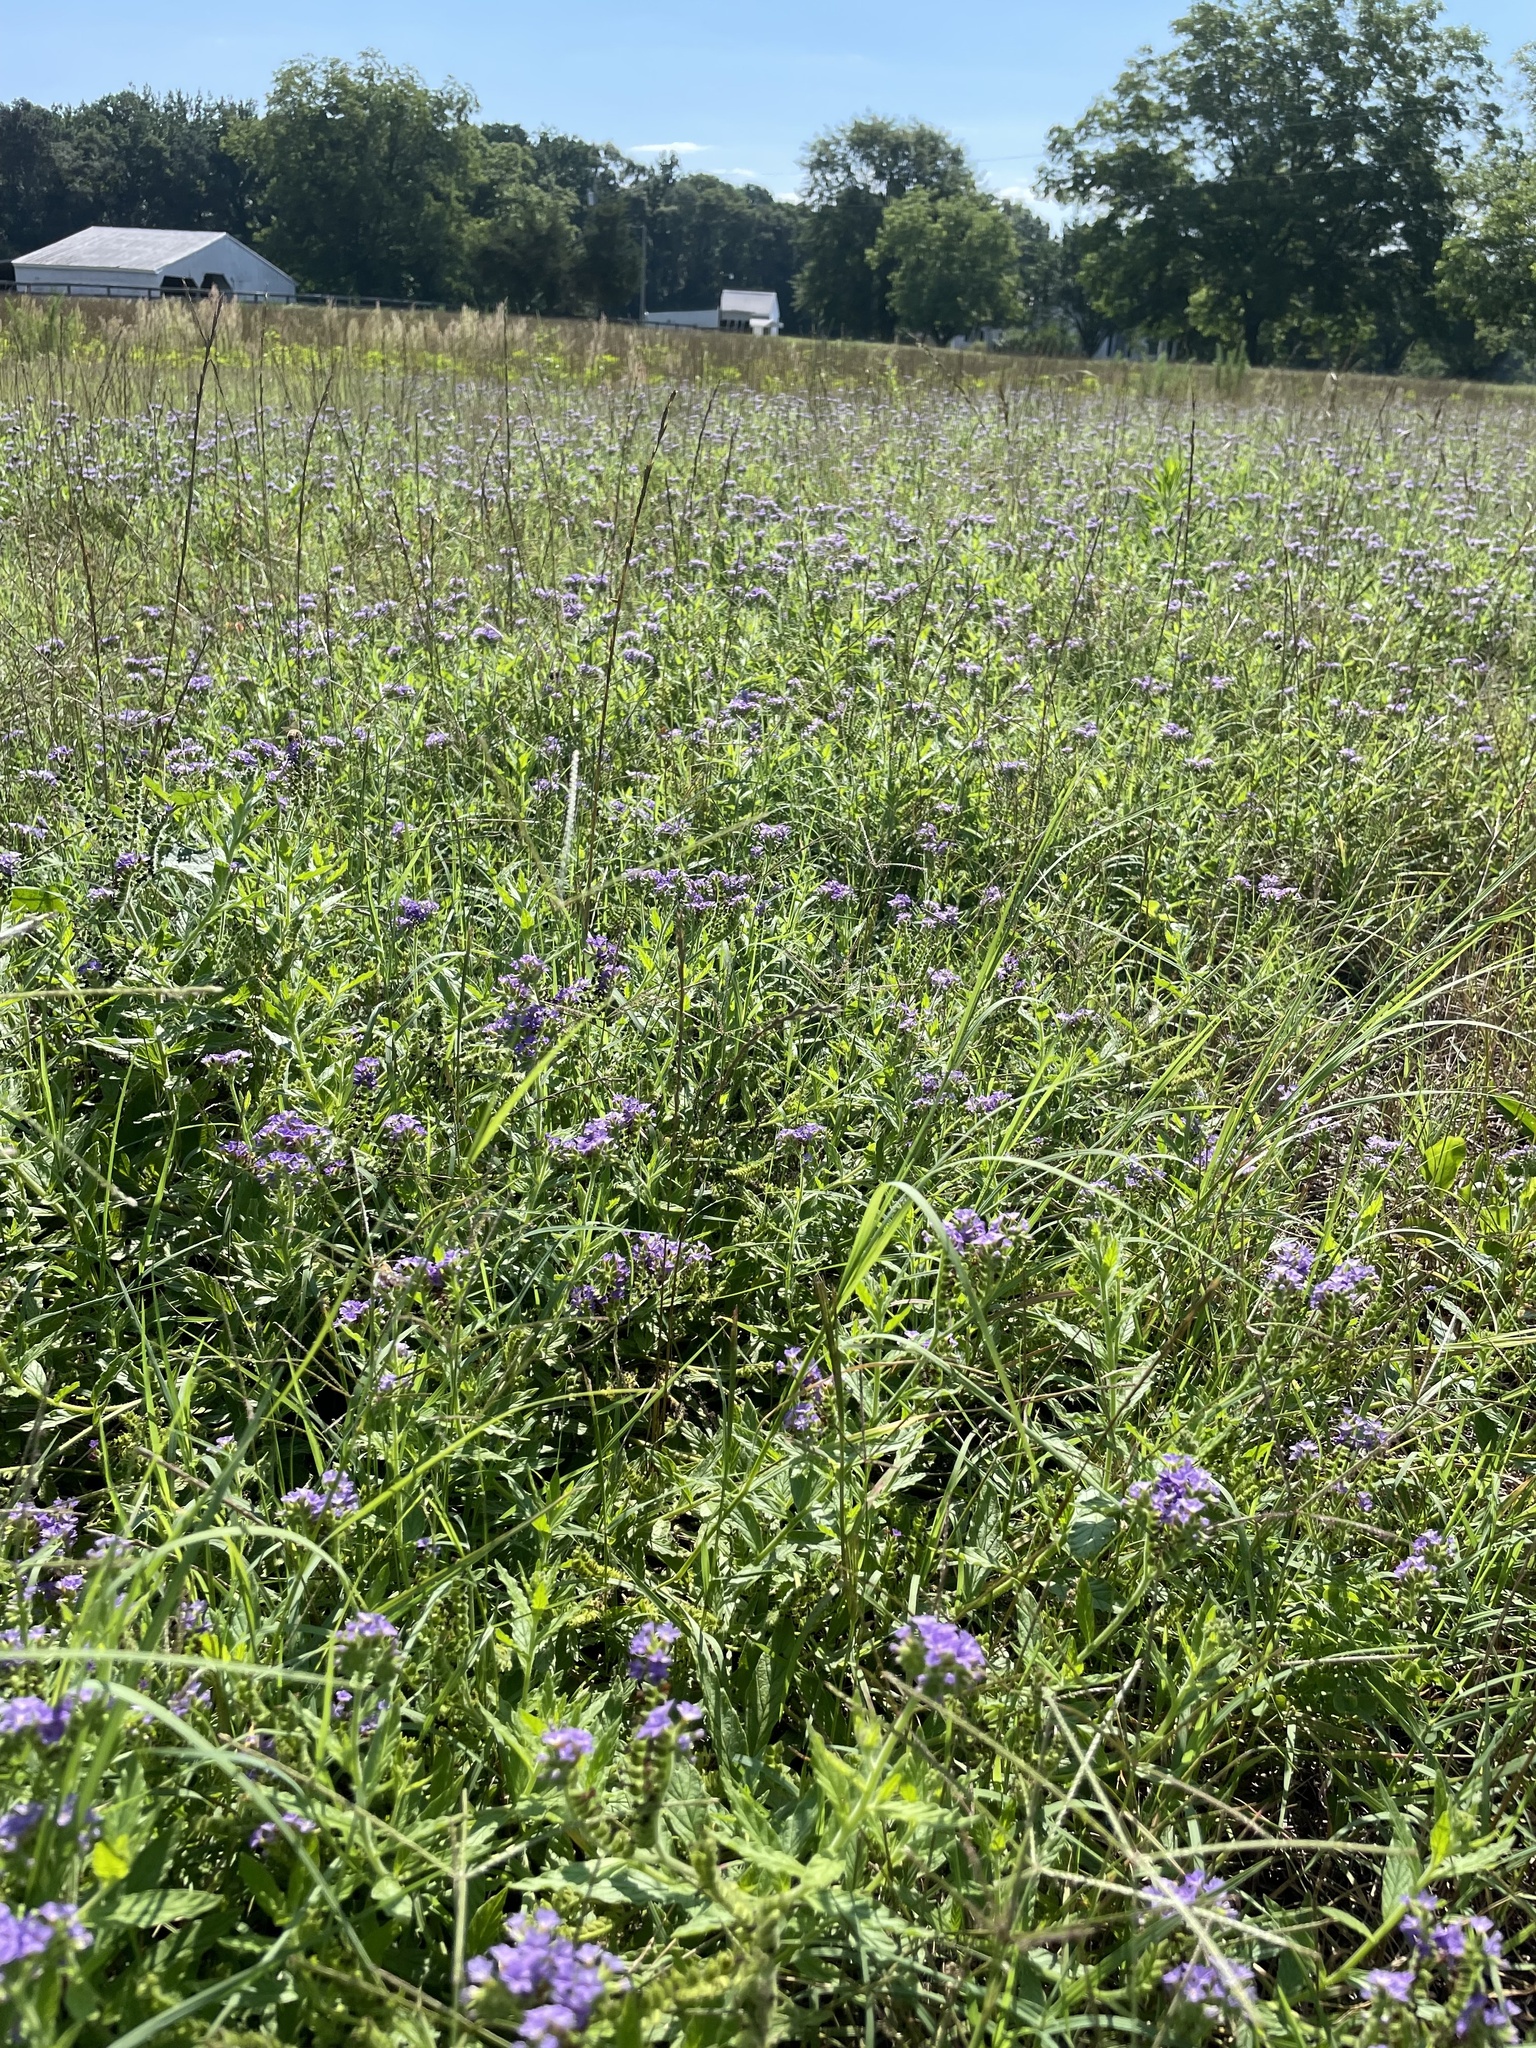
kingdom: Plantae
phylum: Tracheophyta
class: Magnoliopsida
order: Boraginales
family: Heliotropiaceae
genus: Heliotropium
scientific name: Heliotropium amplexicaule
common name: Clasping heliotrope
